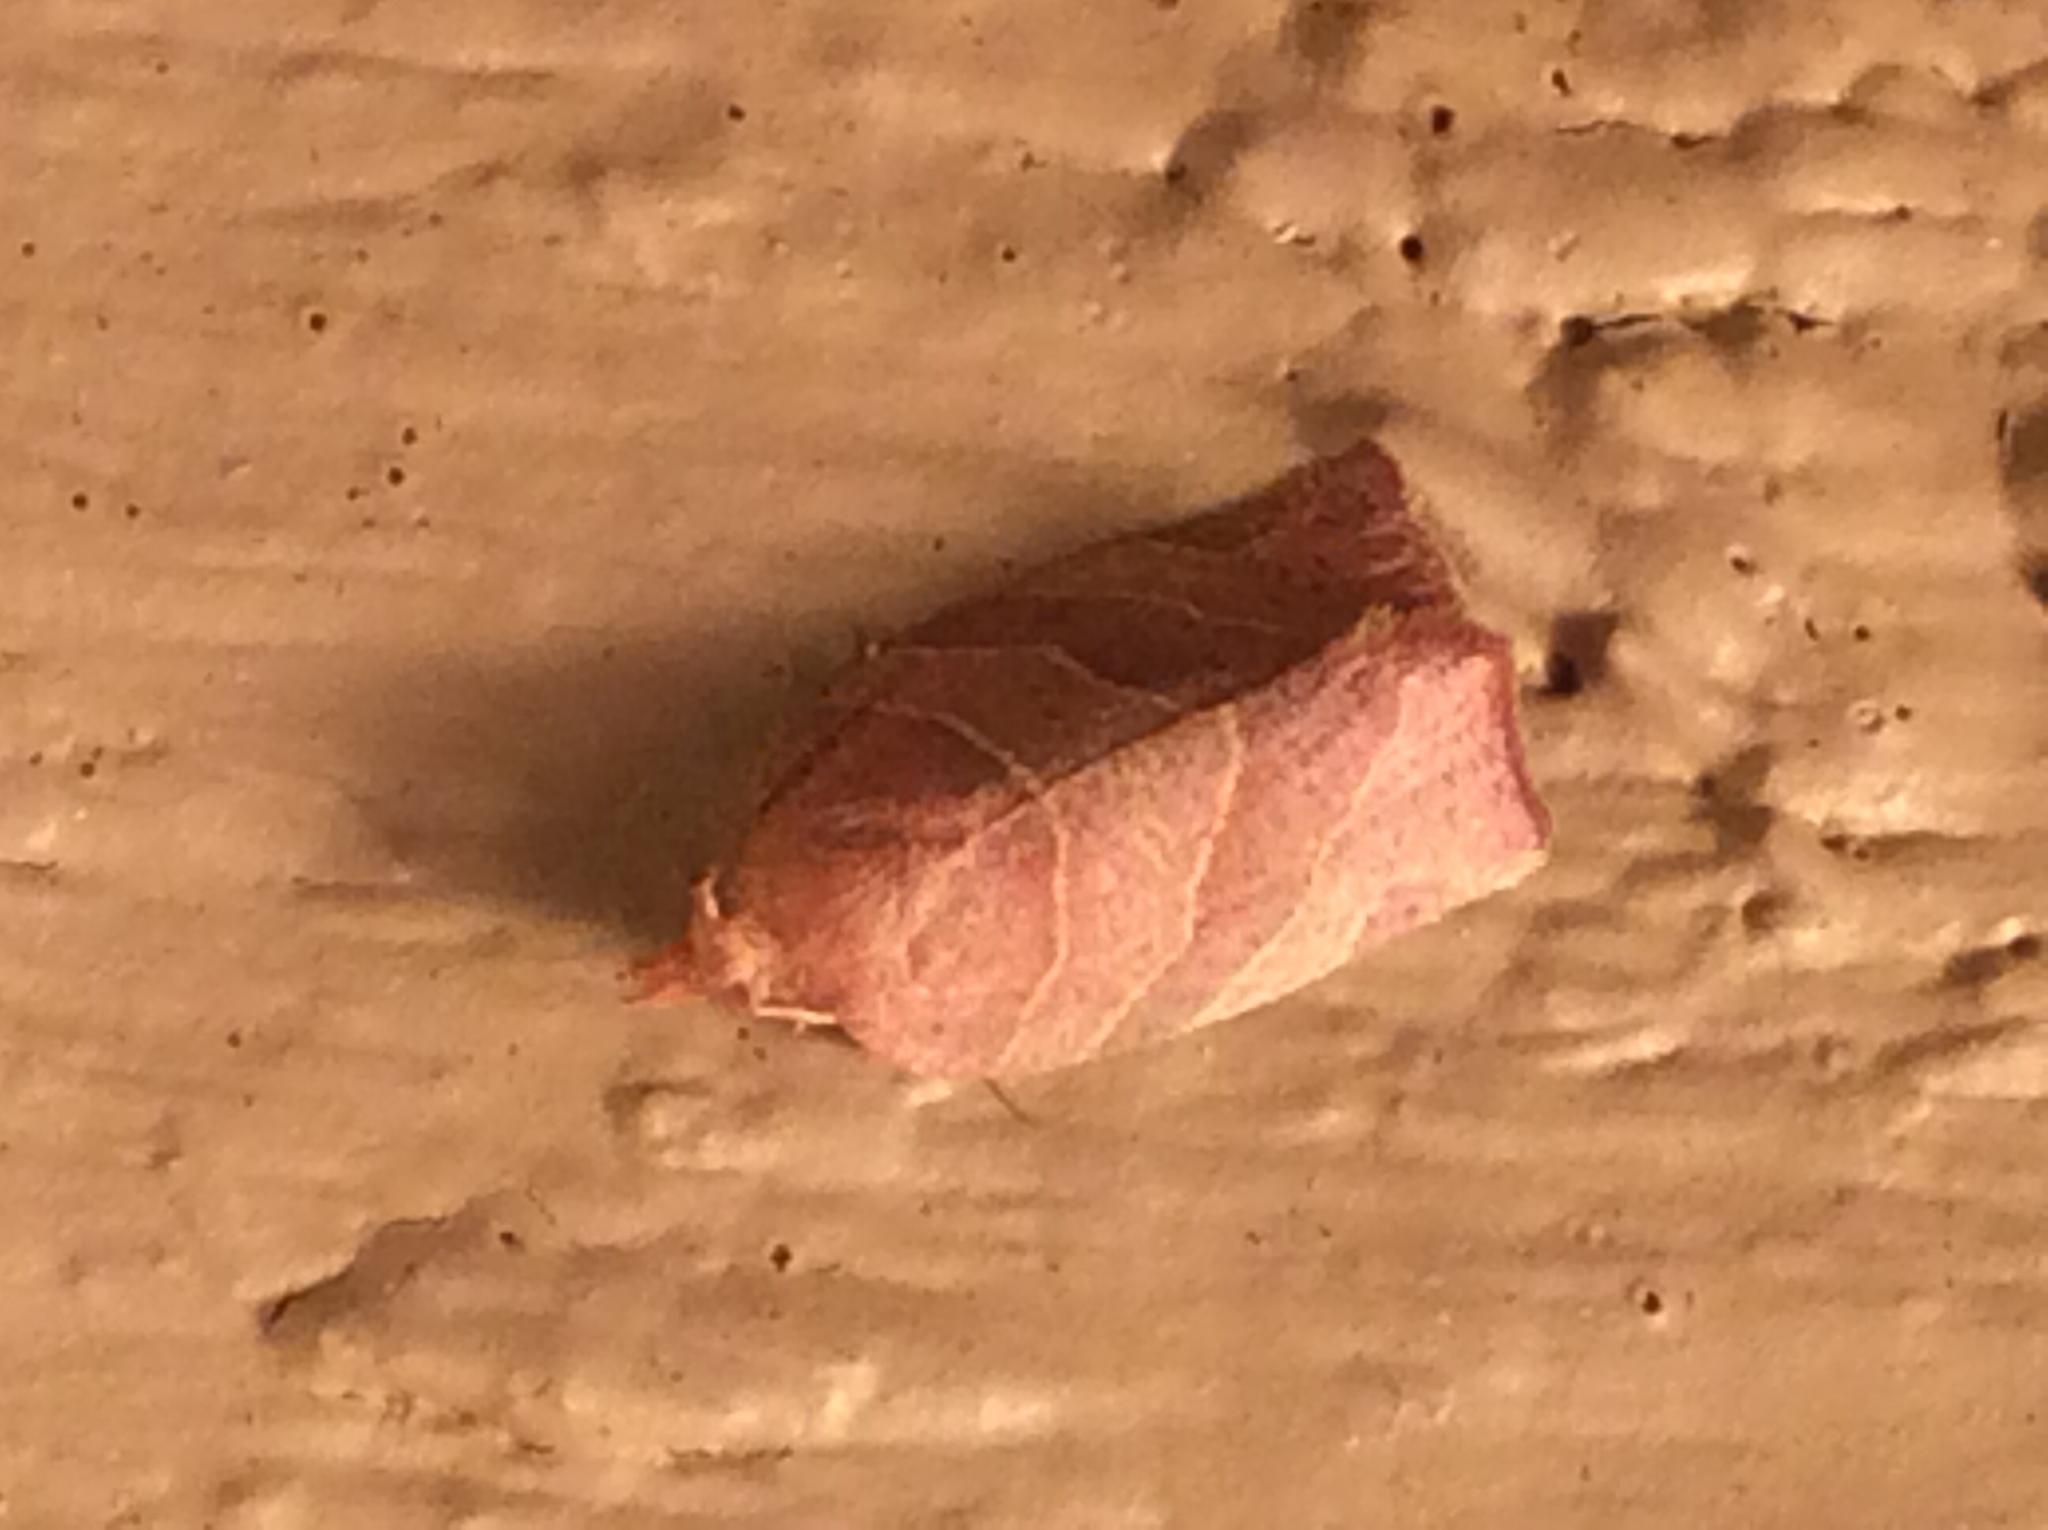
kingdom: Animalia
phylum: Arthropoda
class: Insecta
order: Lepidoptera
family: Tortricidae
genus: Pandemis
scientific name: Pandemis limitata
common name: Three-lined leafroller moth
